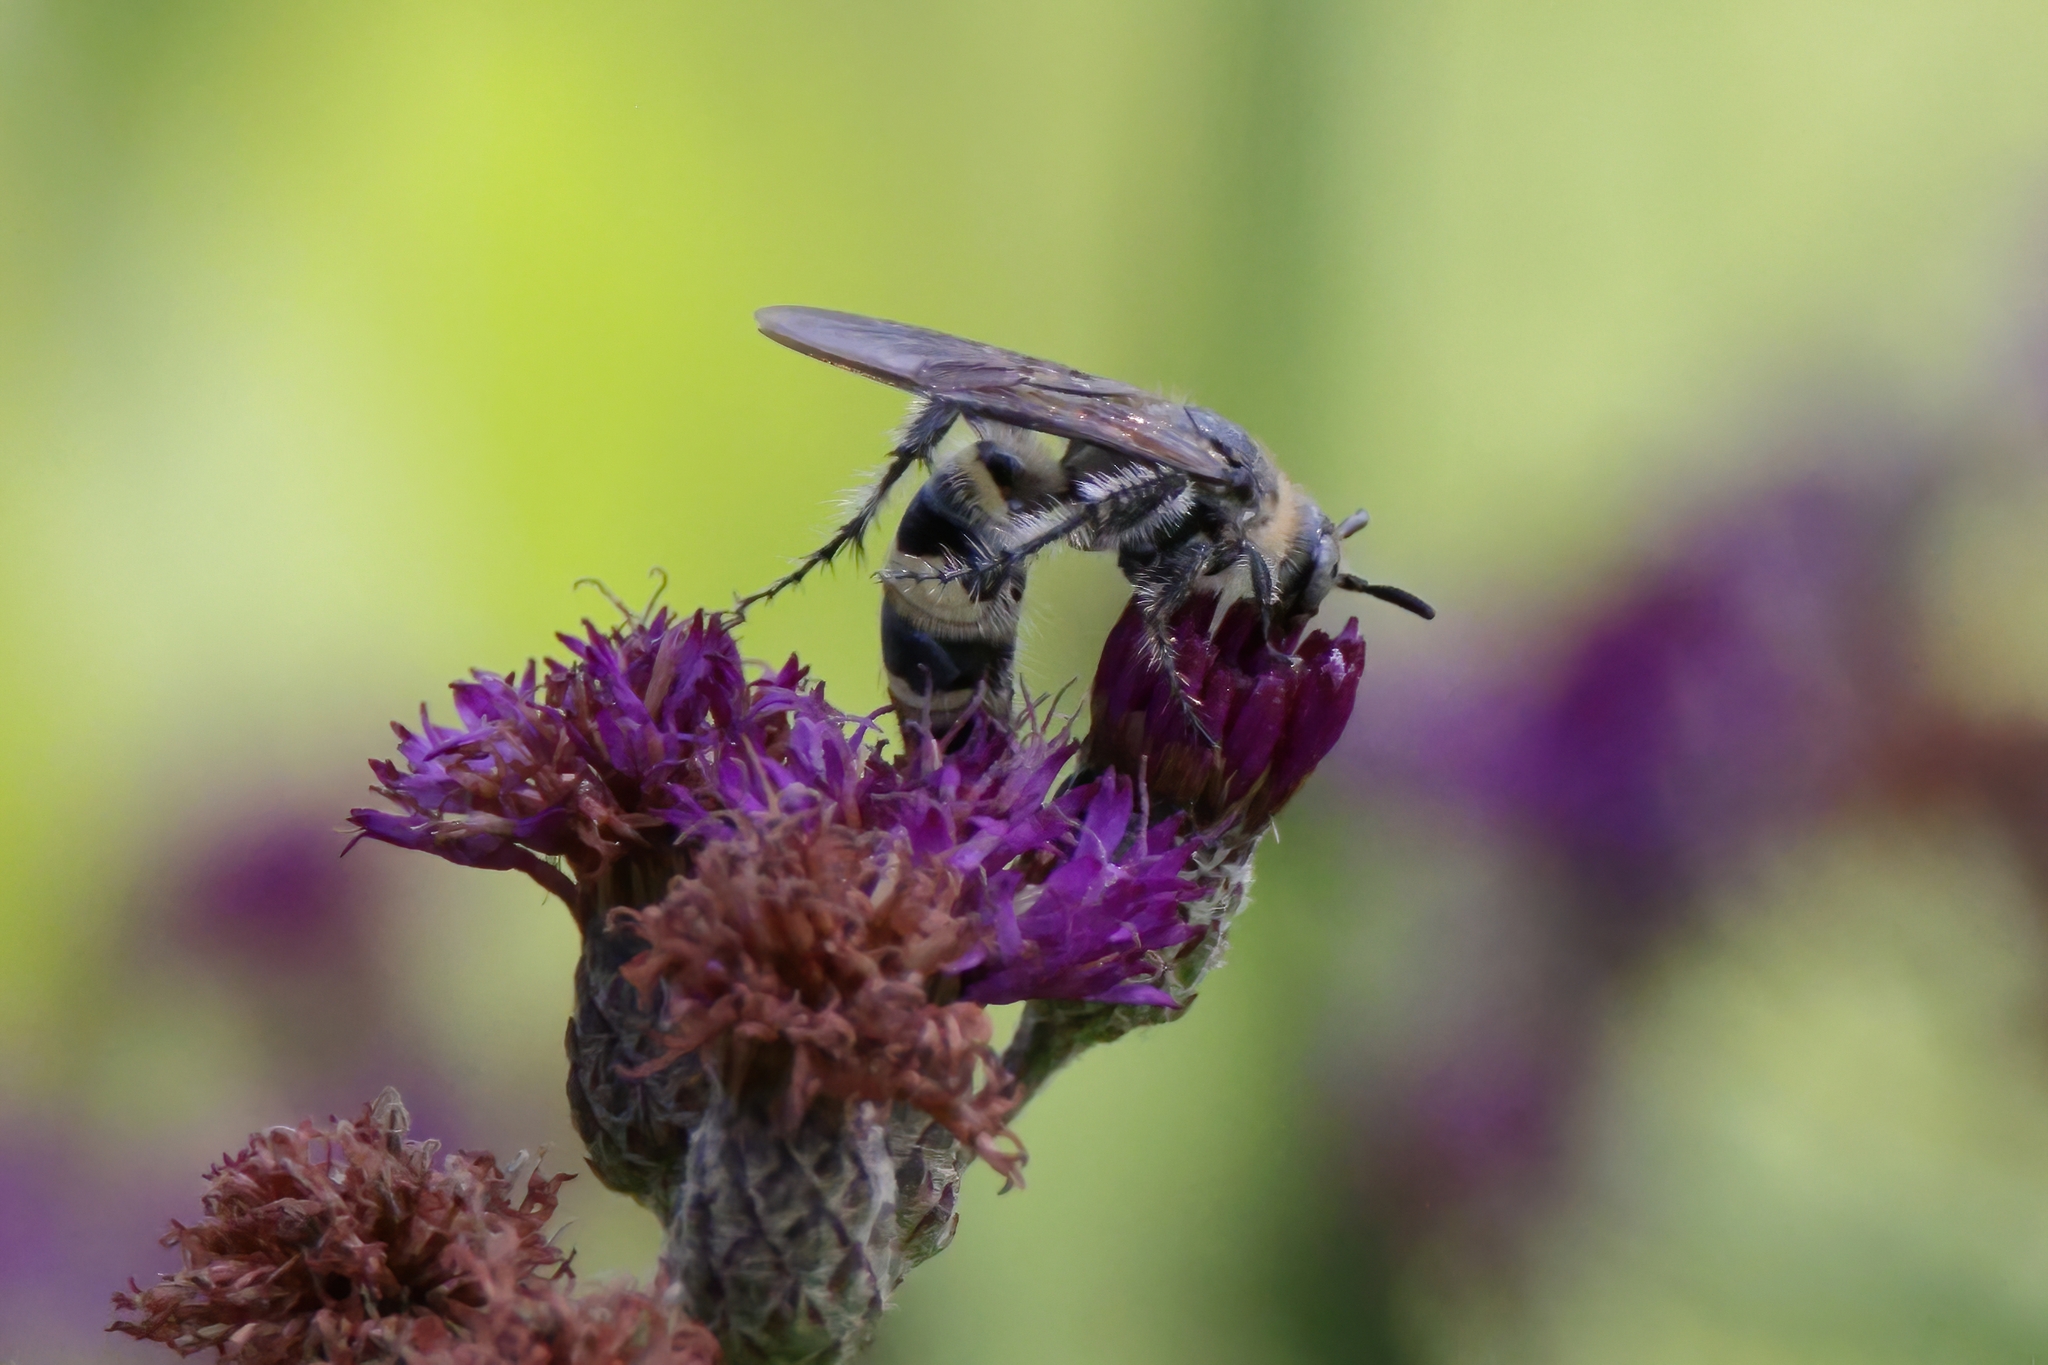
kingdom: Animalia
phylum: Arthropoda
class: Insecta
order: Hymenoptera
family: Scoliidae
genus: Dielis
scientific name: Dielis
